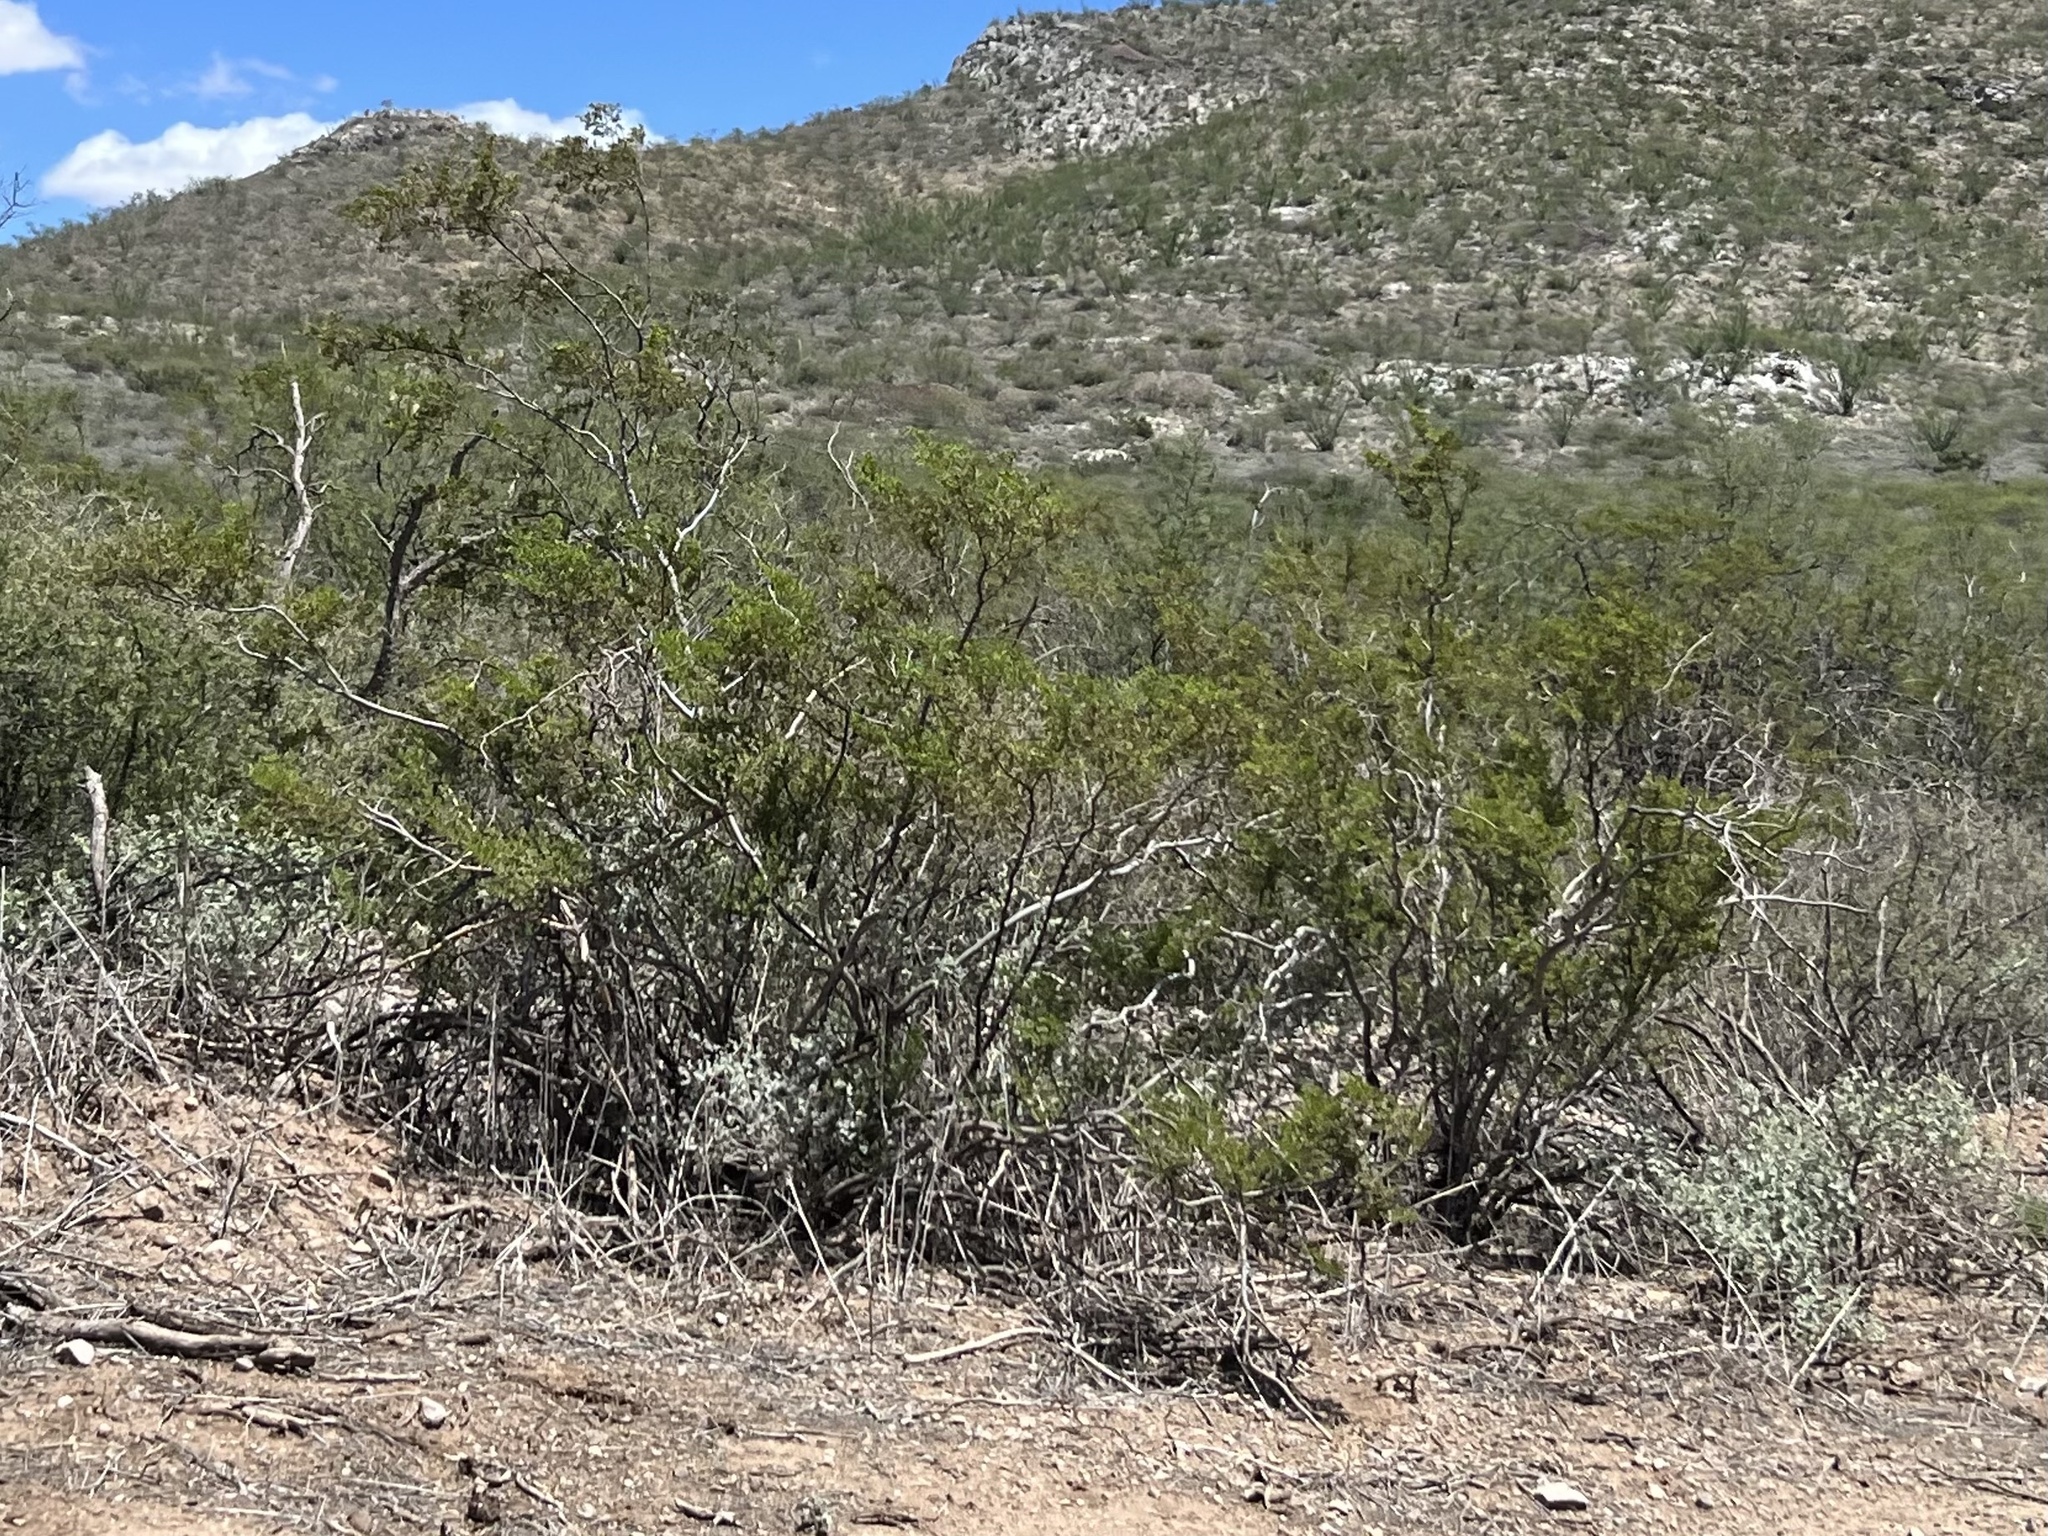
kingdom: Plantae
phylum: Tracheophyta
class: Magnoliopsida
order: Zygophyllales
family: Zygophyllaceae
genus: Larrea
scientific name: Larrea tridentata
